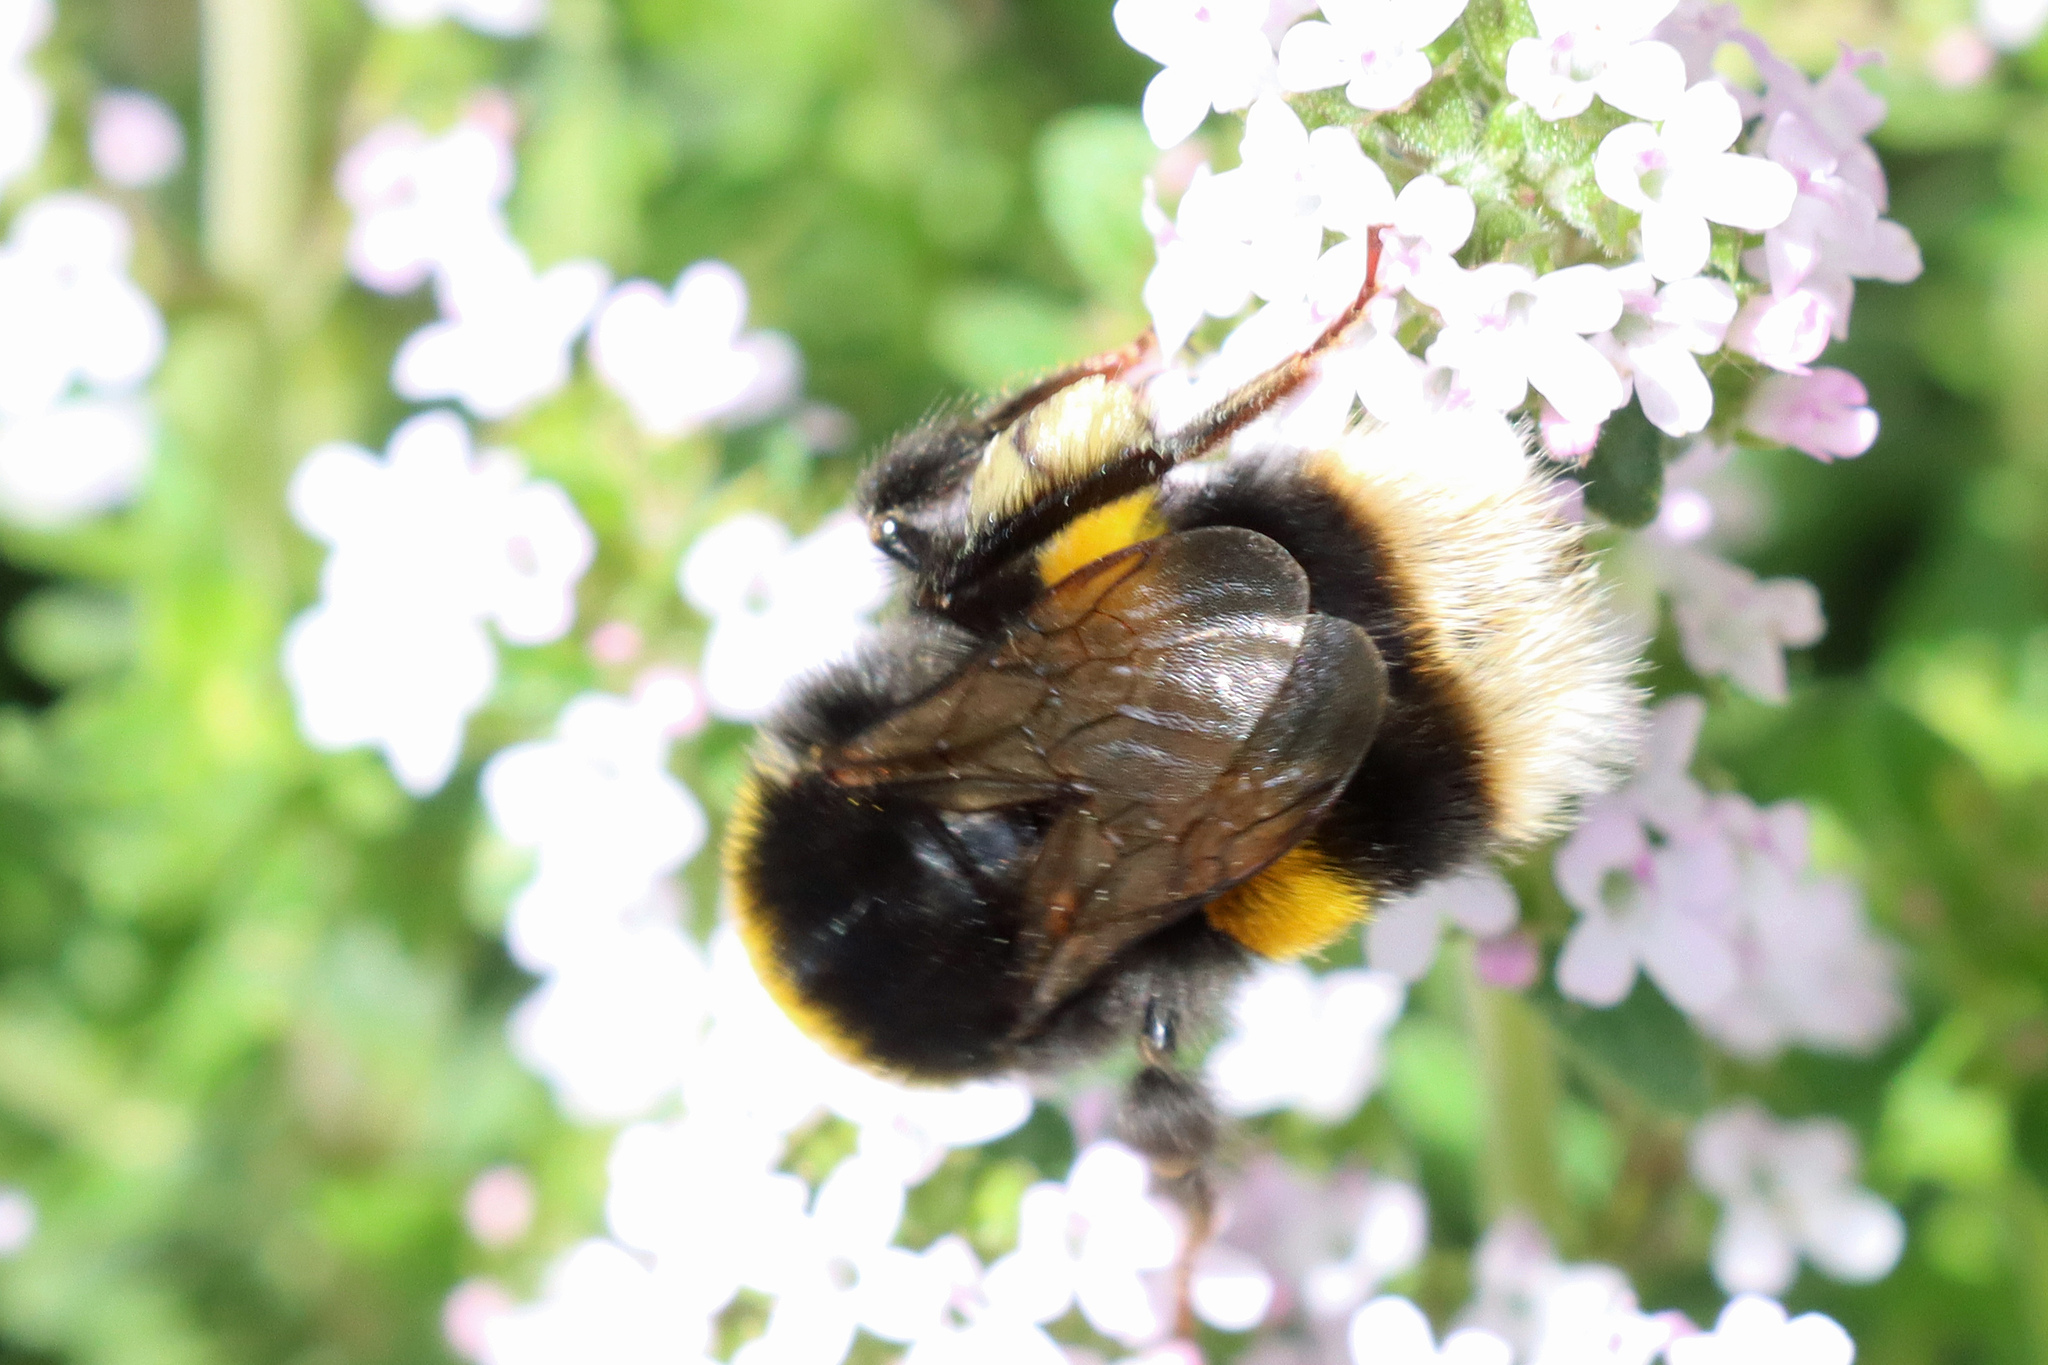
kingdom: Animalia
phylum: Arthropoda
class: Insecta
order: Hymenoptera
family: Apidae
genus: Bombus
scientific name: Bombus terrestris
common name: Buff-tailed bumblebee
